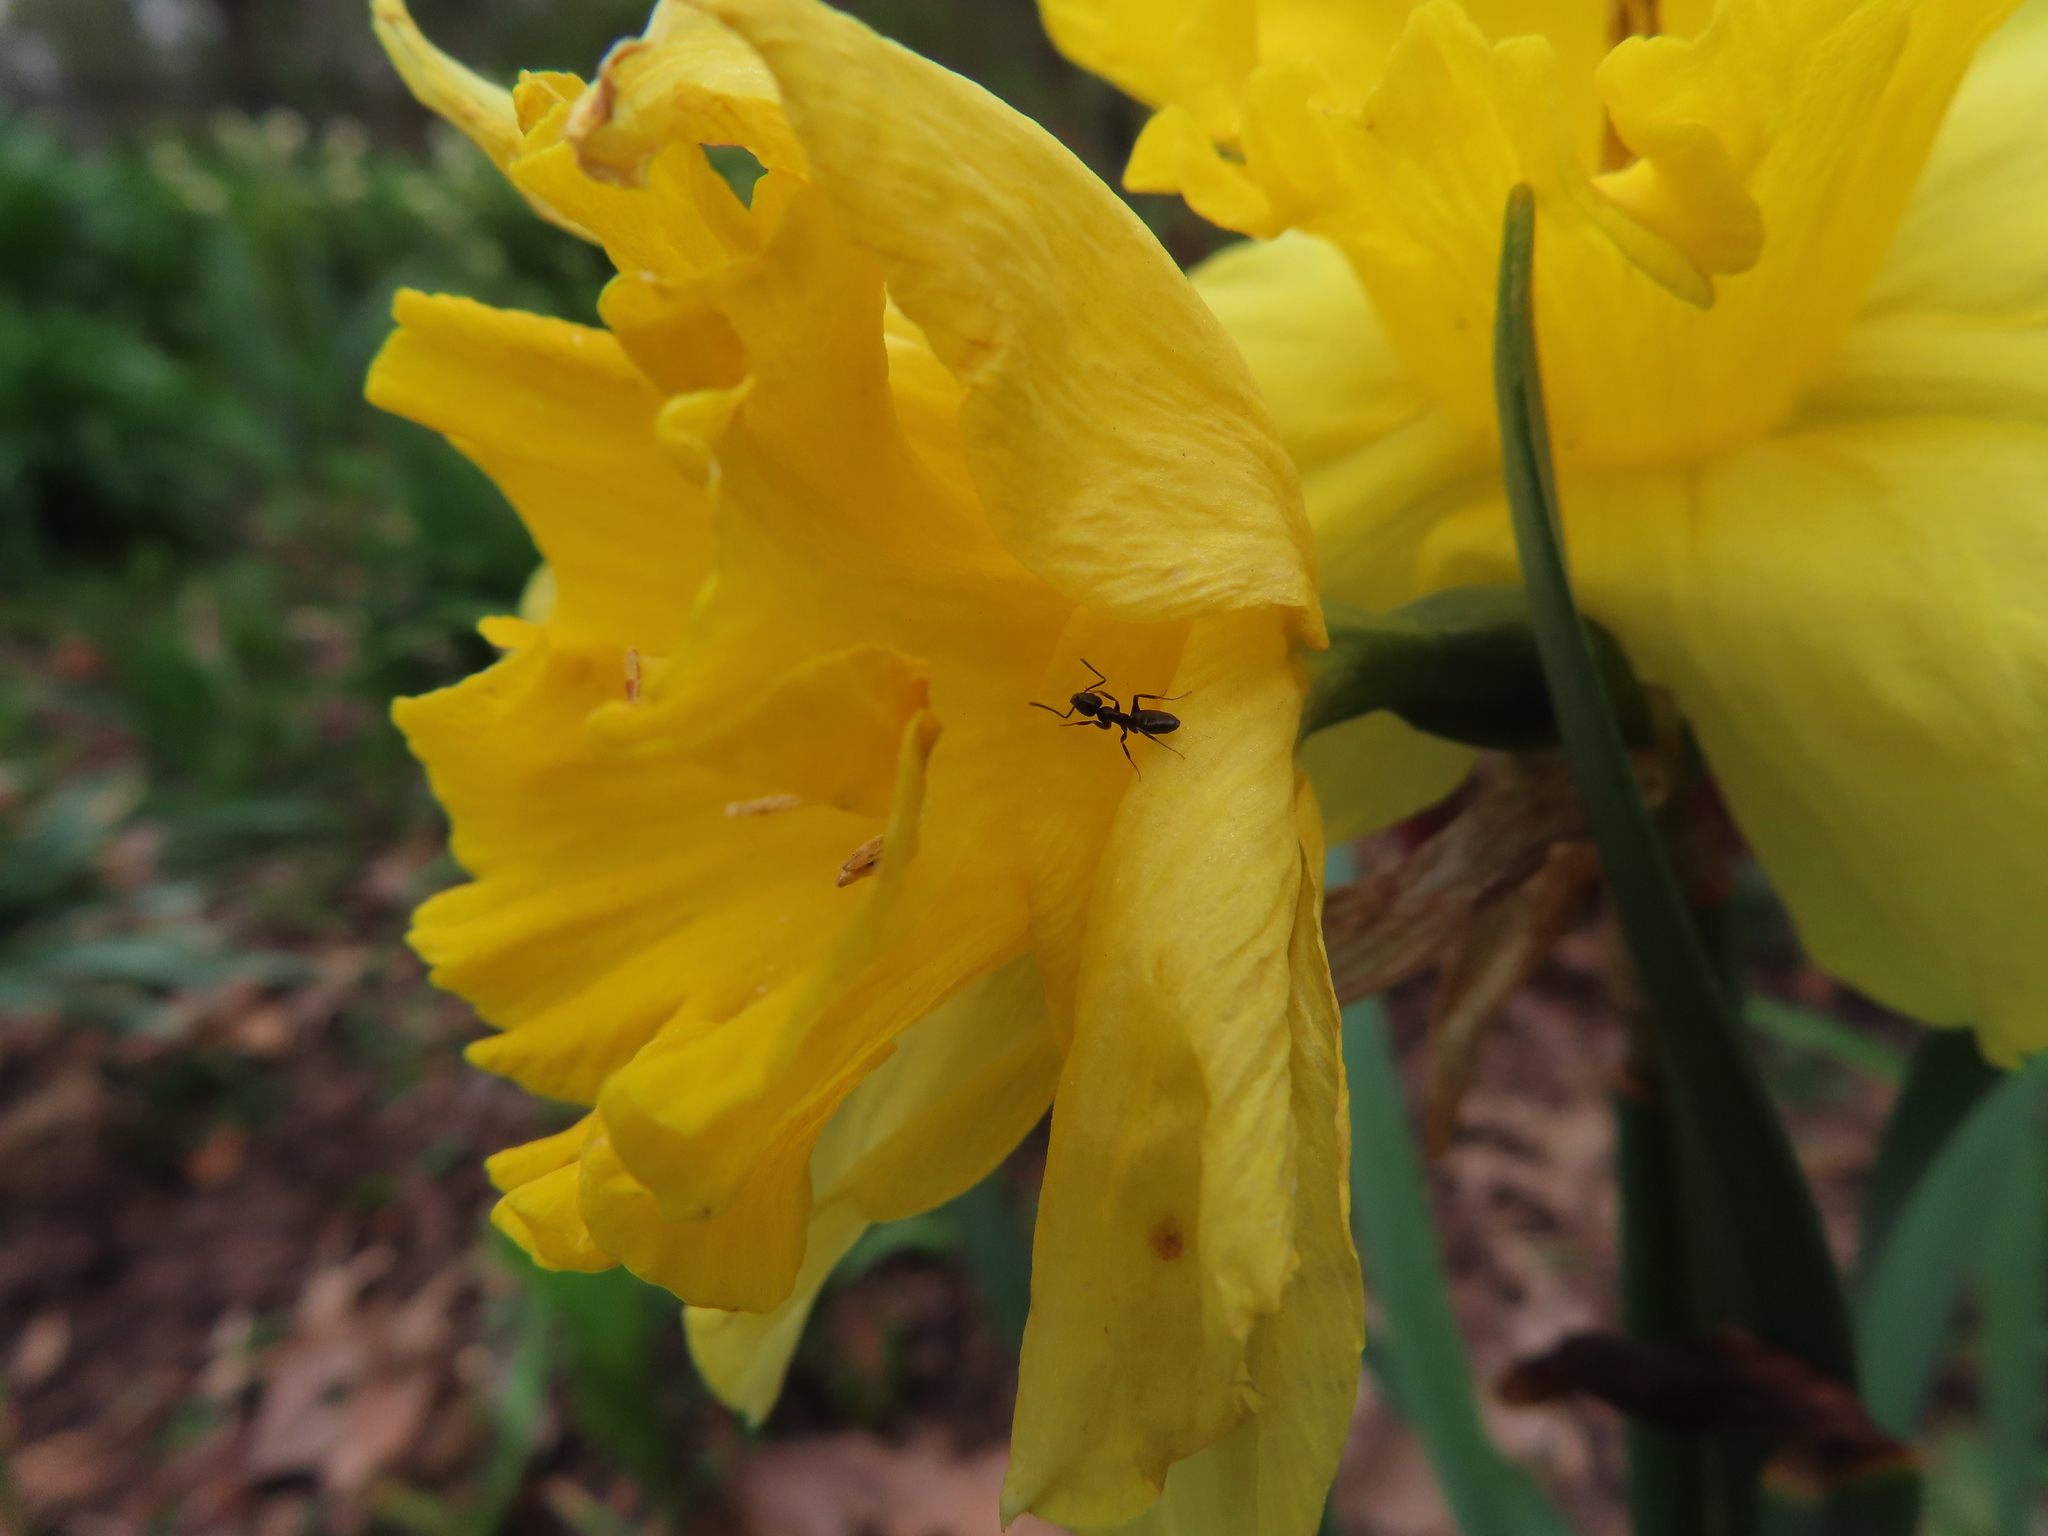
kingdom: Animalia
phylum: Arthropoda
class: Insecta
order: Hymenoptera
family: Formicidae
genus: Tapinoma
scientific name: Tapinoma sessile
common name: Odorous house ant
